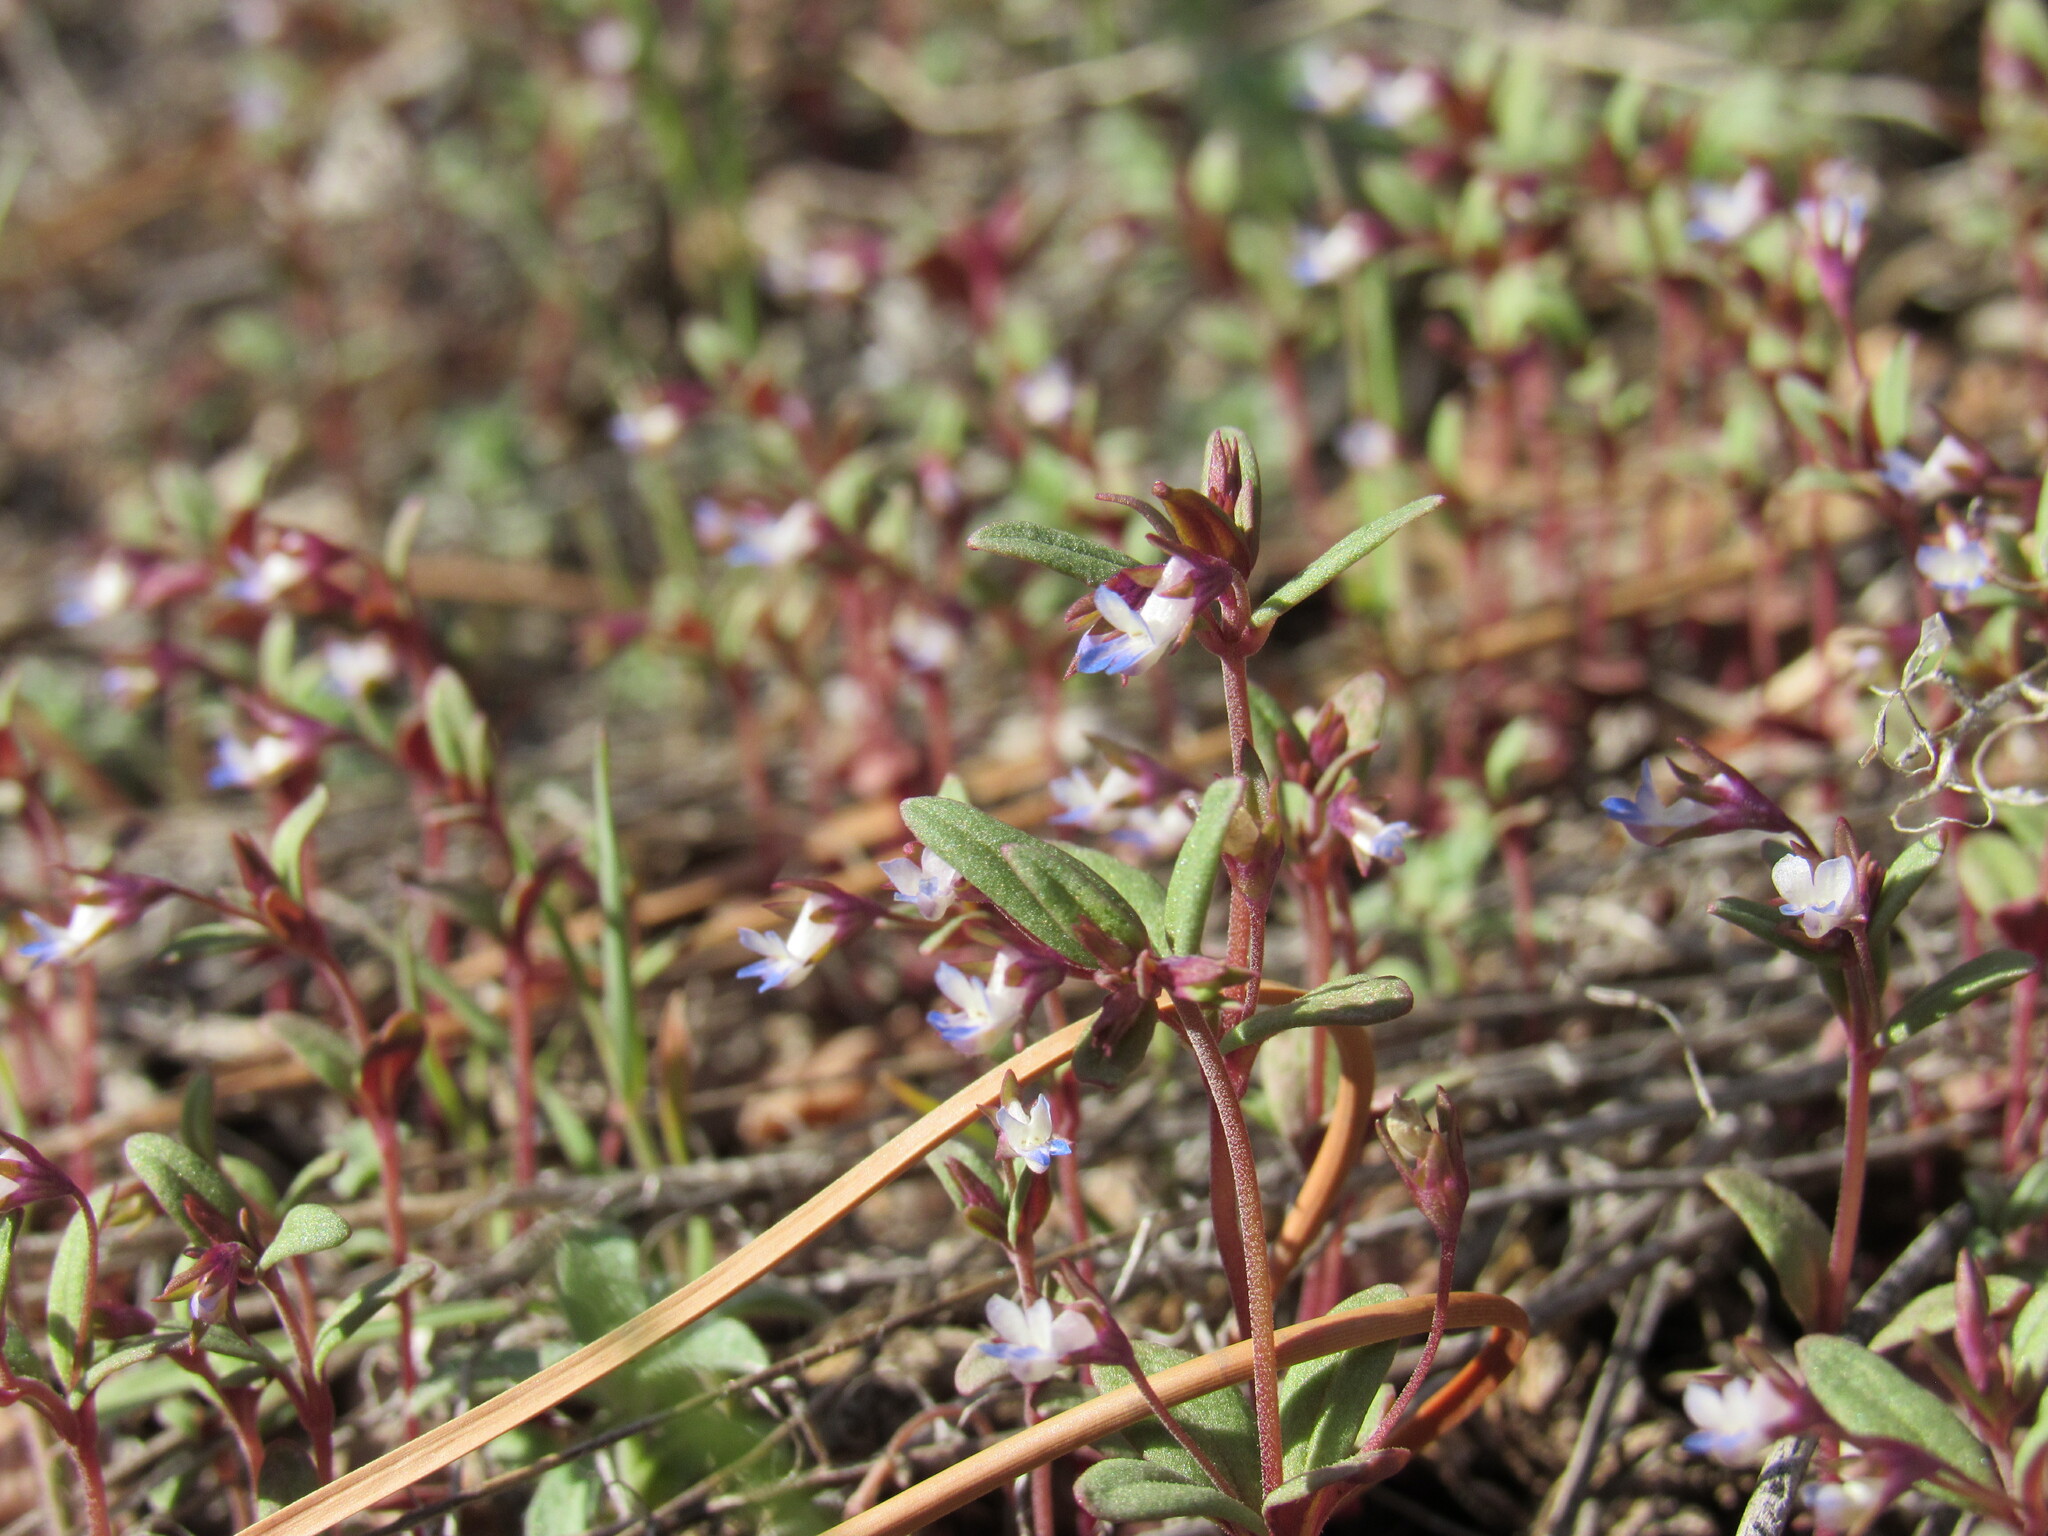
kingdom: Plantae
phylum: Tracheophyta
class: Magnoliopsida
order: Lamiales
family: Plantaginaceae
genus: Collinsia
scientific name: Collinsia parviflora
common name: Blue-lips
